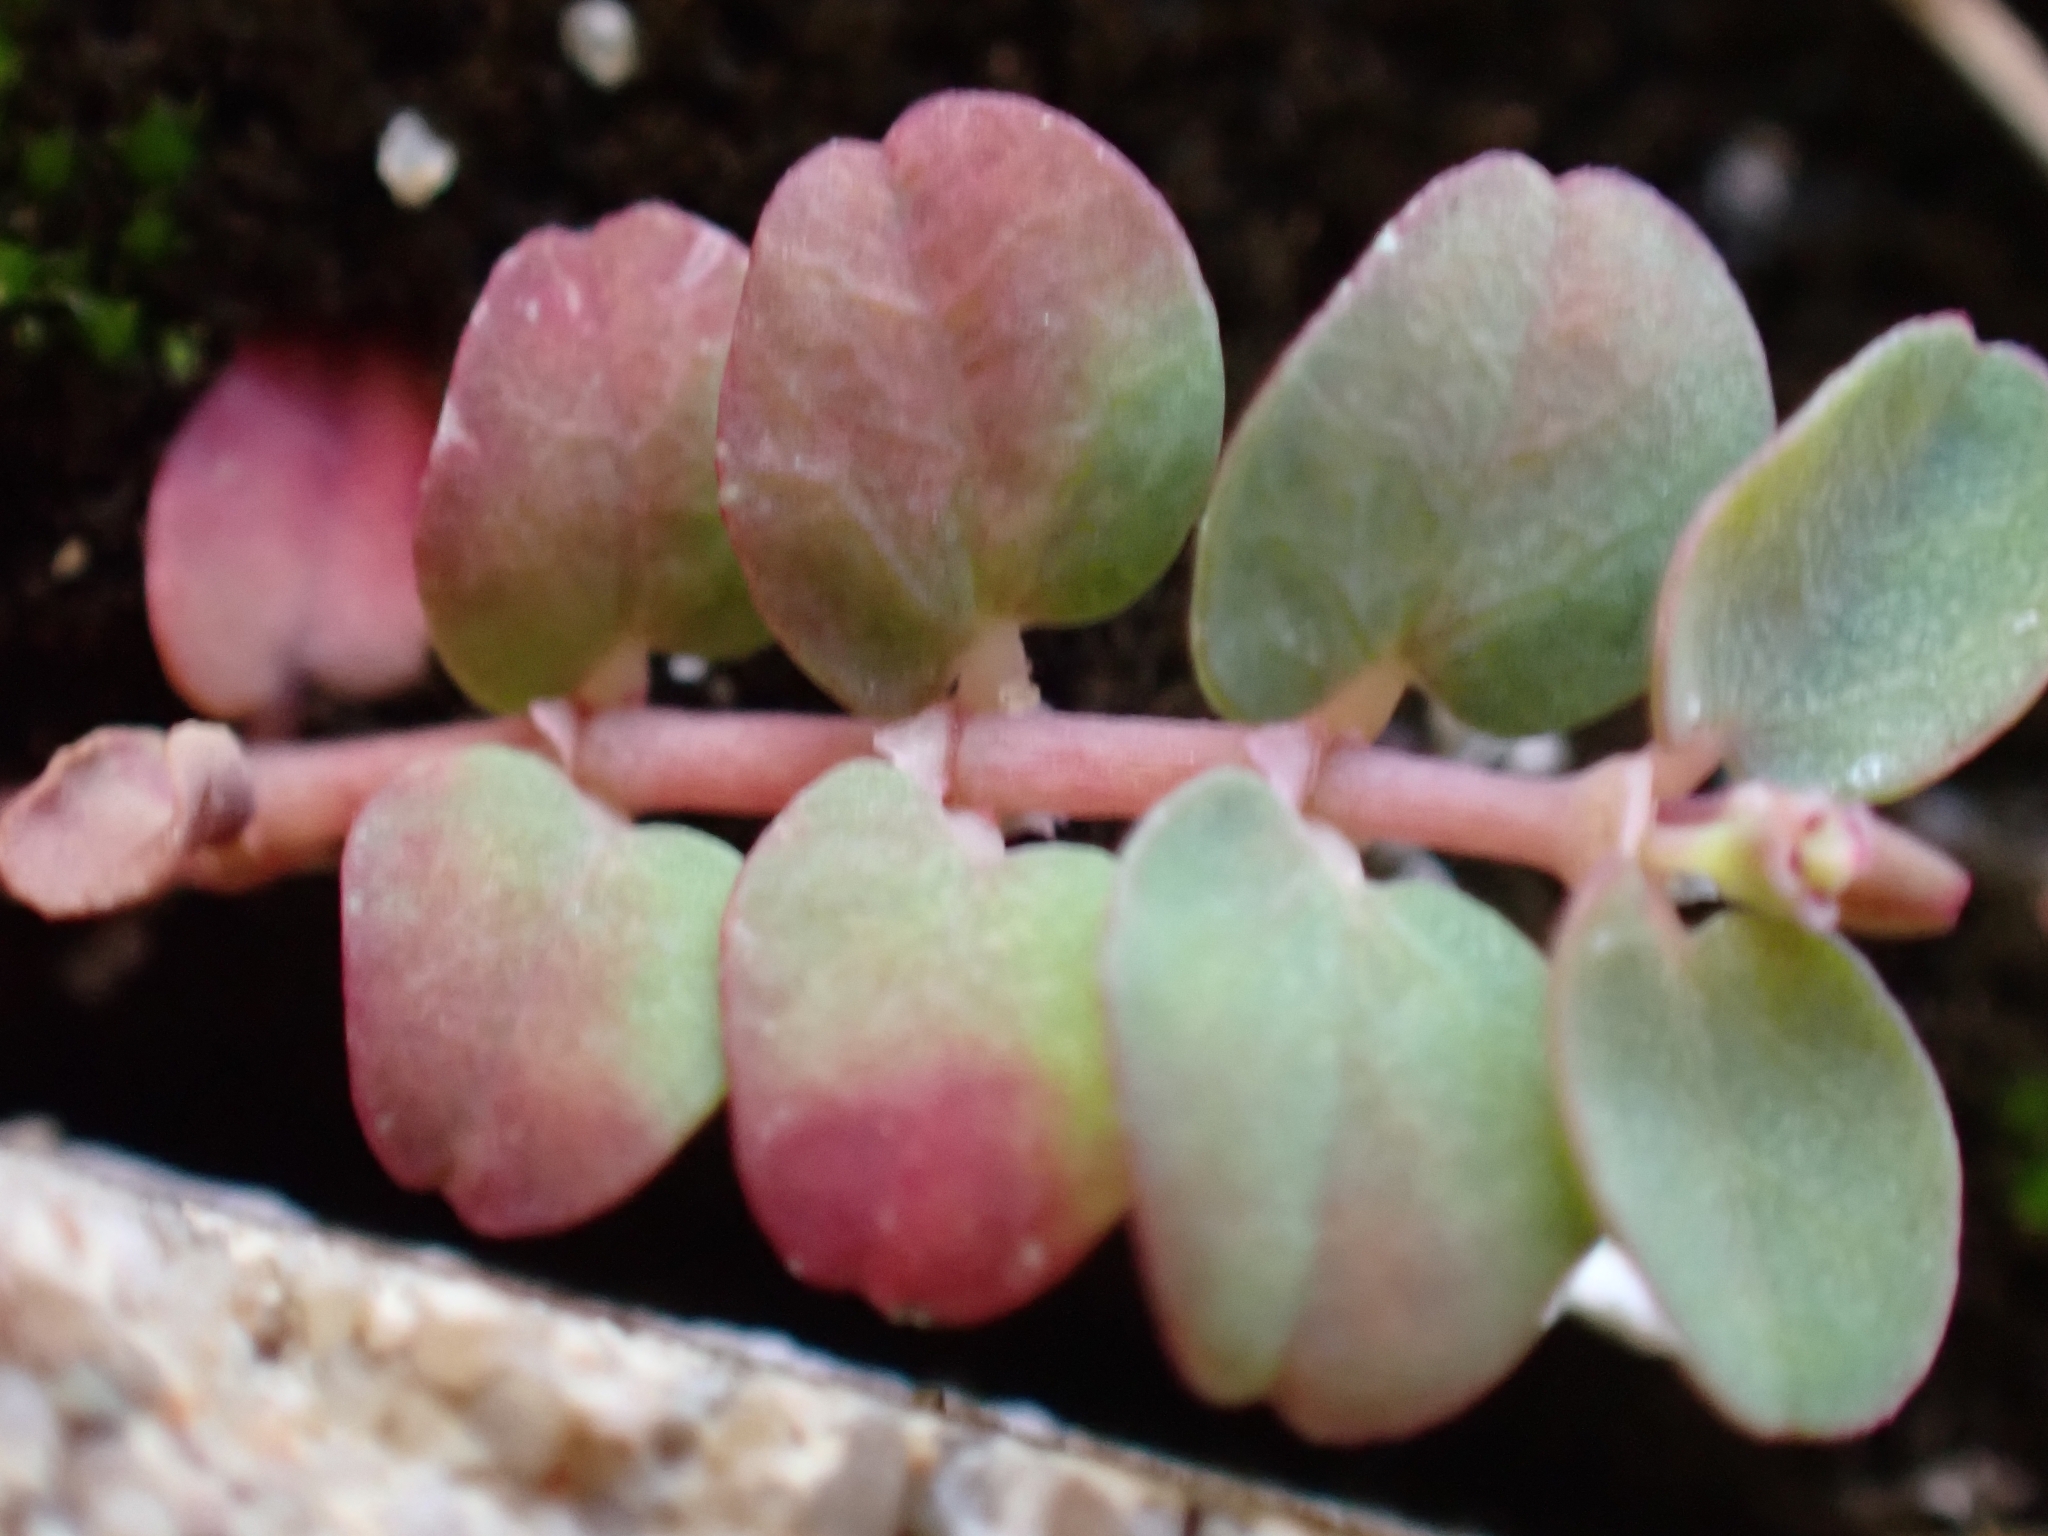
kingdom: Plantae
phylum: Tracheophyta
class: Magnoliopsida
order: Malpighiales
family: Euphorbiaceae
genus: Euphorbia
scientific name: Euphorbia serpens
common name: Matted sandmat
